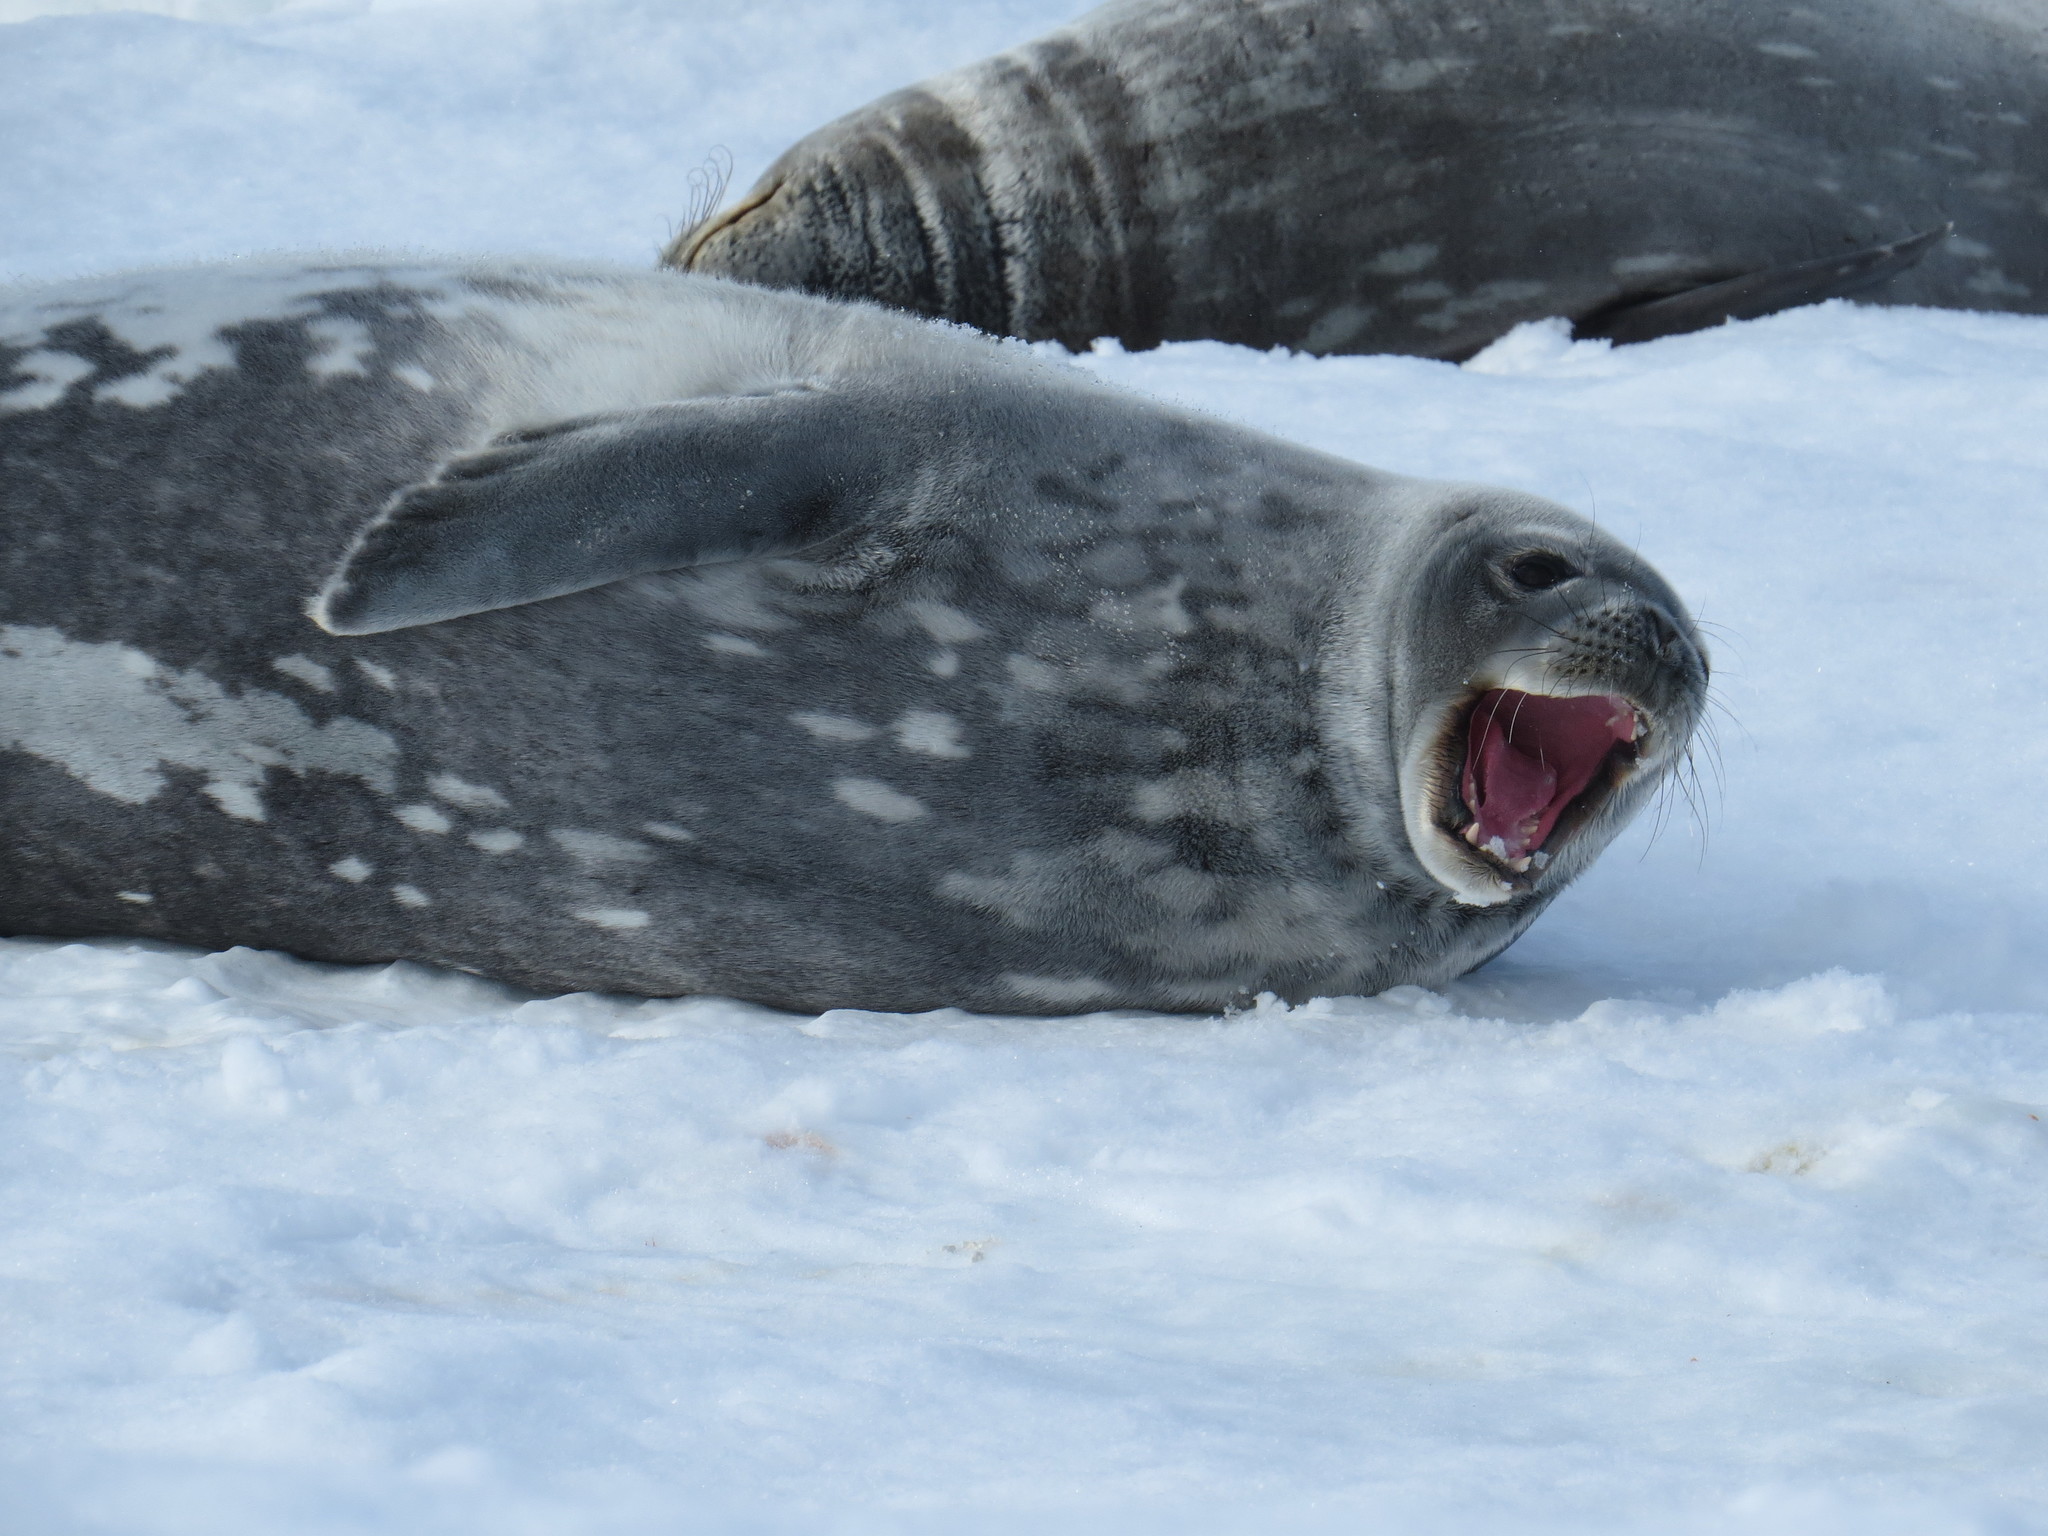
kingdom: Animalia
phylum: Chordata
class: Mammalia
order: Carnivora
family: Phocidae
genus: Leptonychotes
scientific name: Leptonychotes weddellii
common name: Weddell seal
